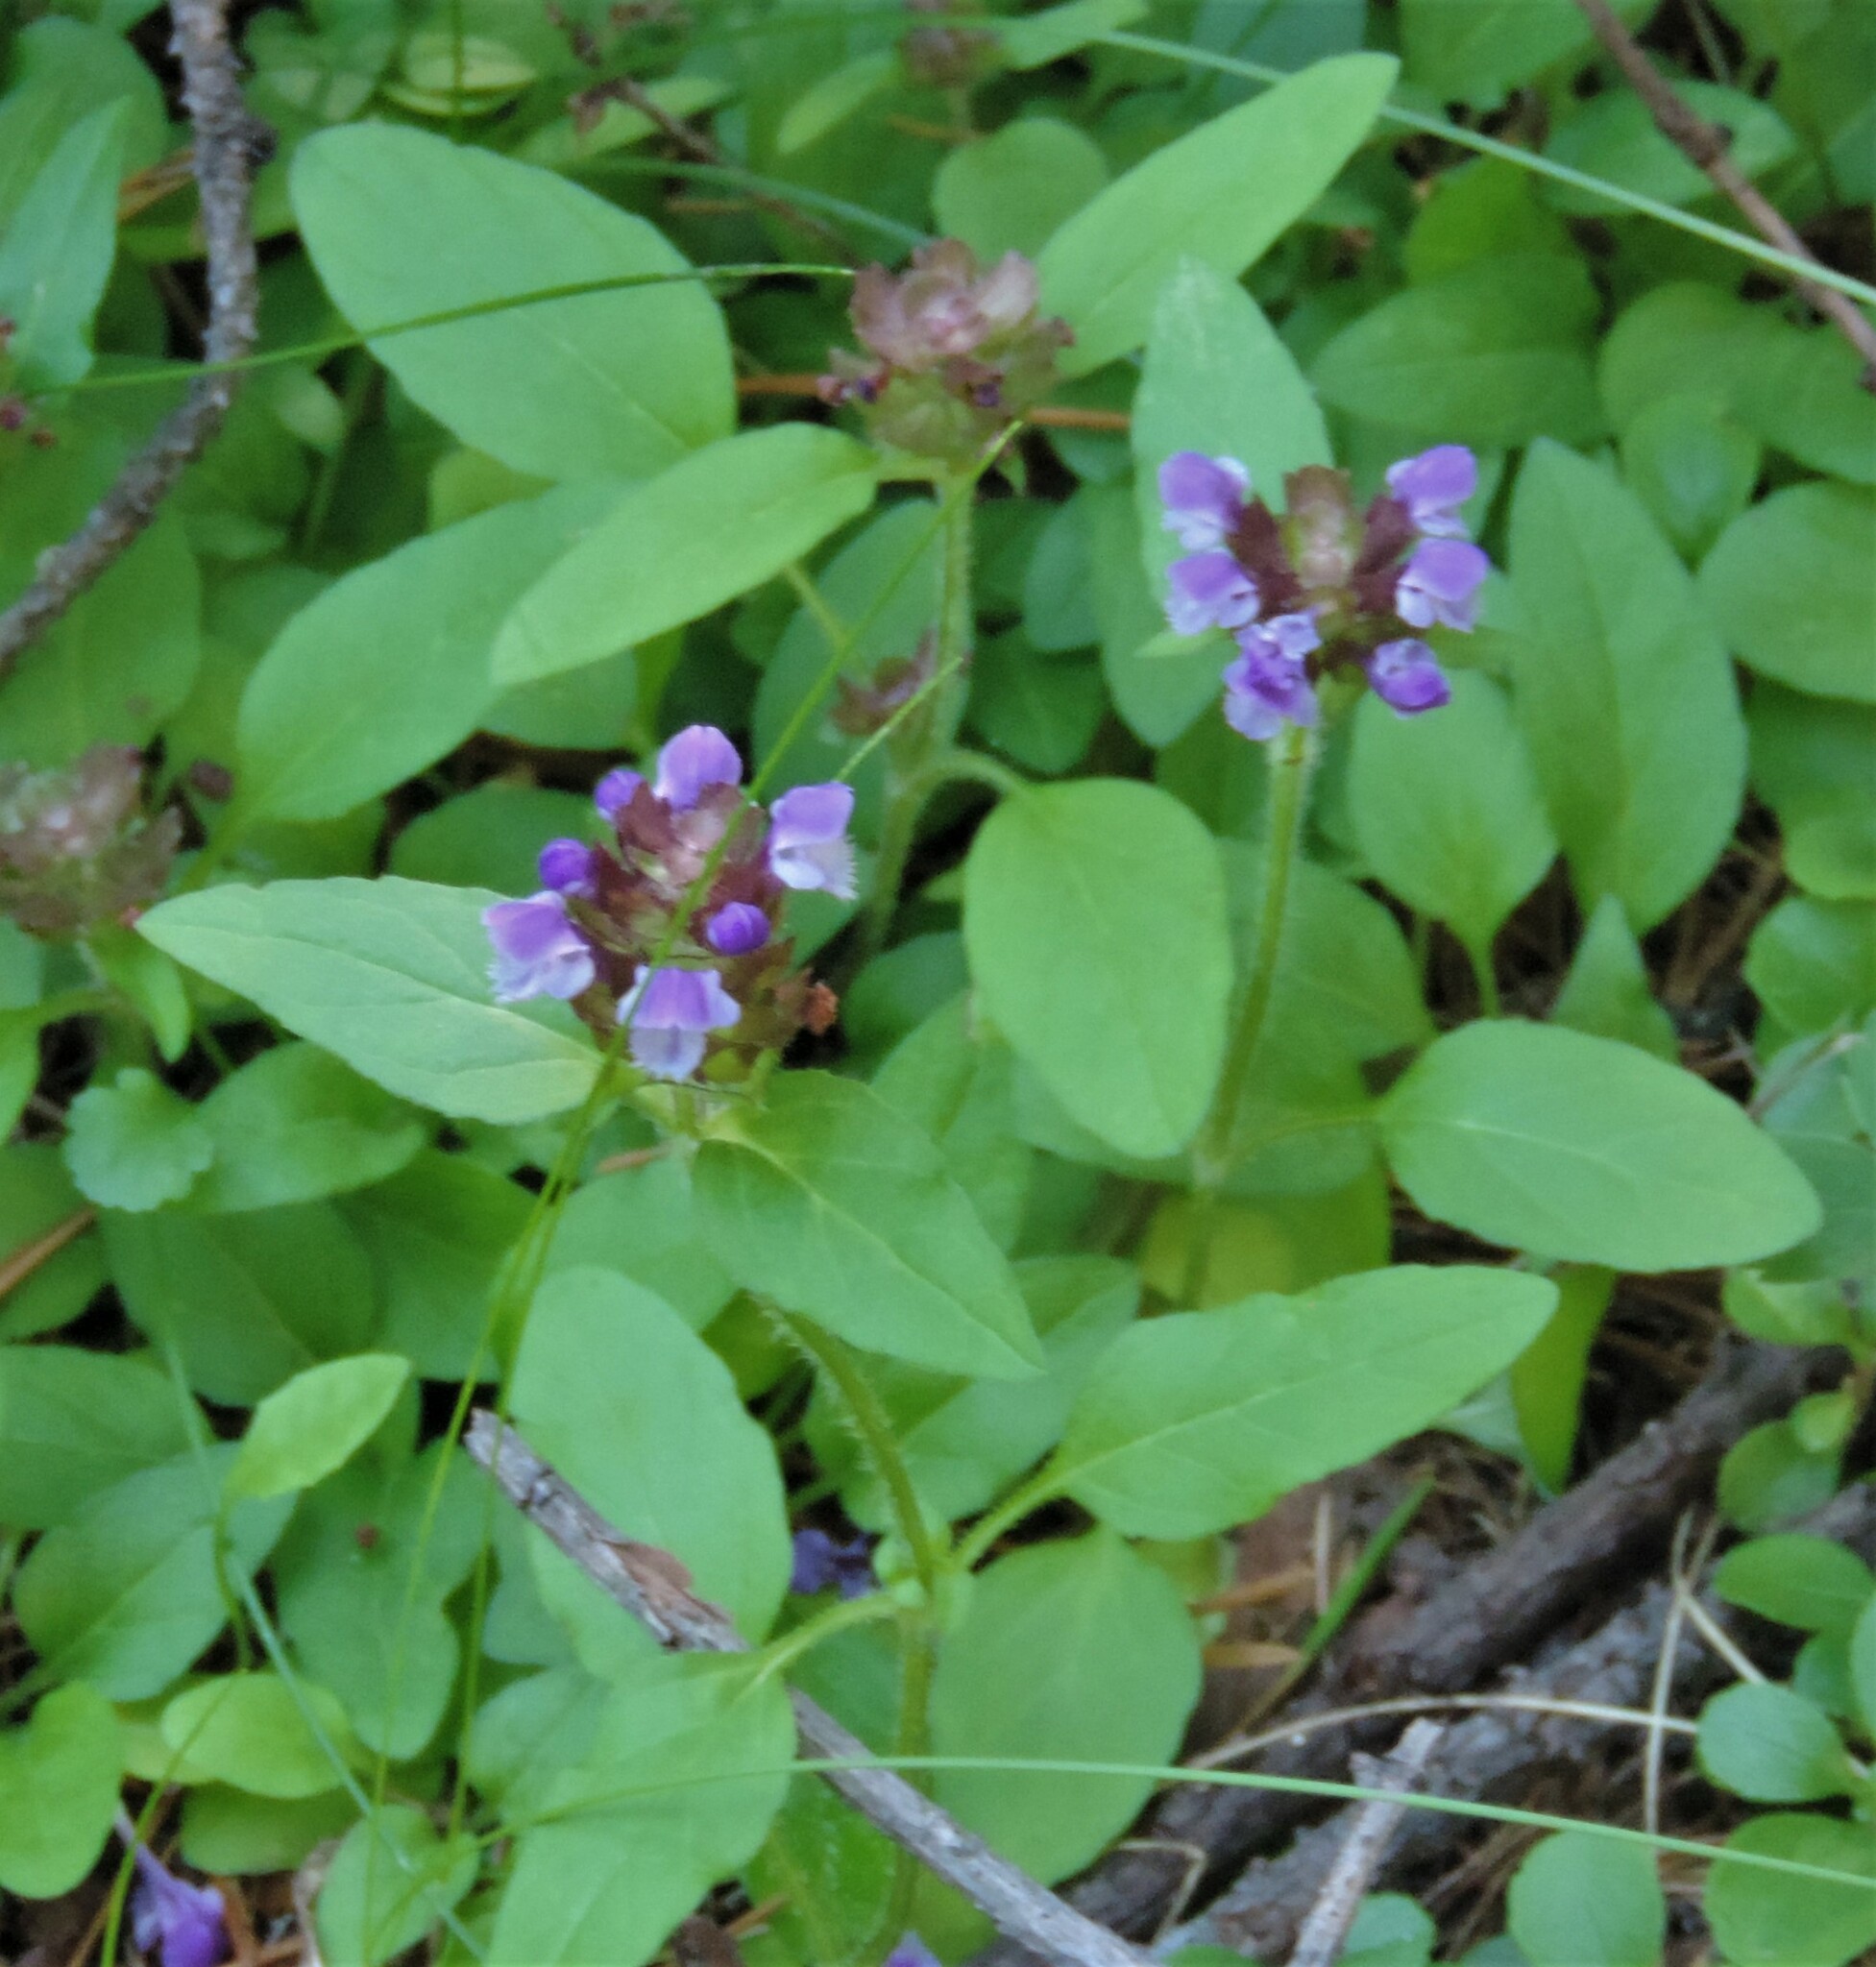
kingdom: Plantae
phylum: Tracheophyta
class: Magnoliopsida
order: Lamiales
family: Lamiaceae
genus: Prunella
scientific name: Prunella vulgaris
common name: Heal-all
